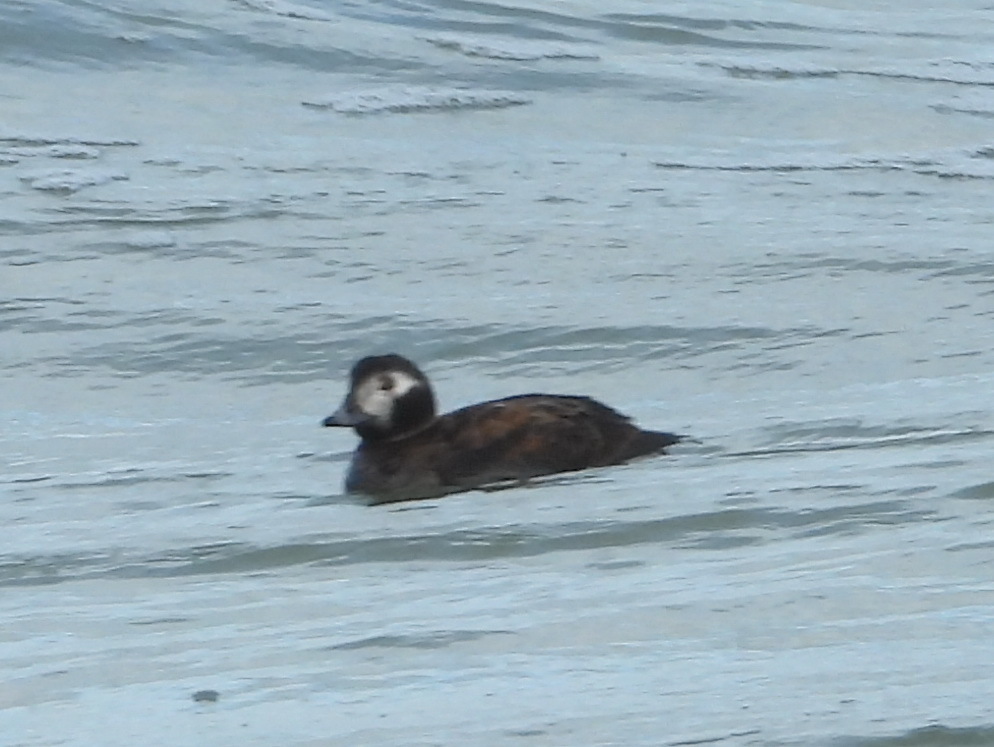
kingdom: Animalia
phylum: Chordata
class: Aves
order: Anseriformes
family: Anatidae
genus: Clangula
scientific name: Clangula hyemalis
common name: Long-tailed duck
